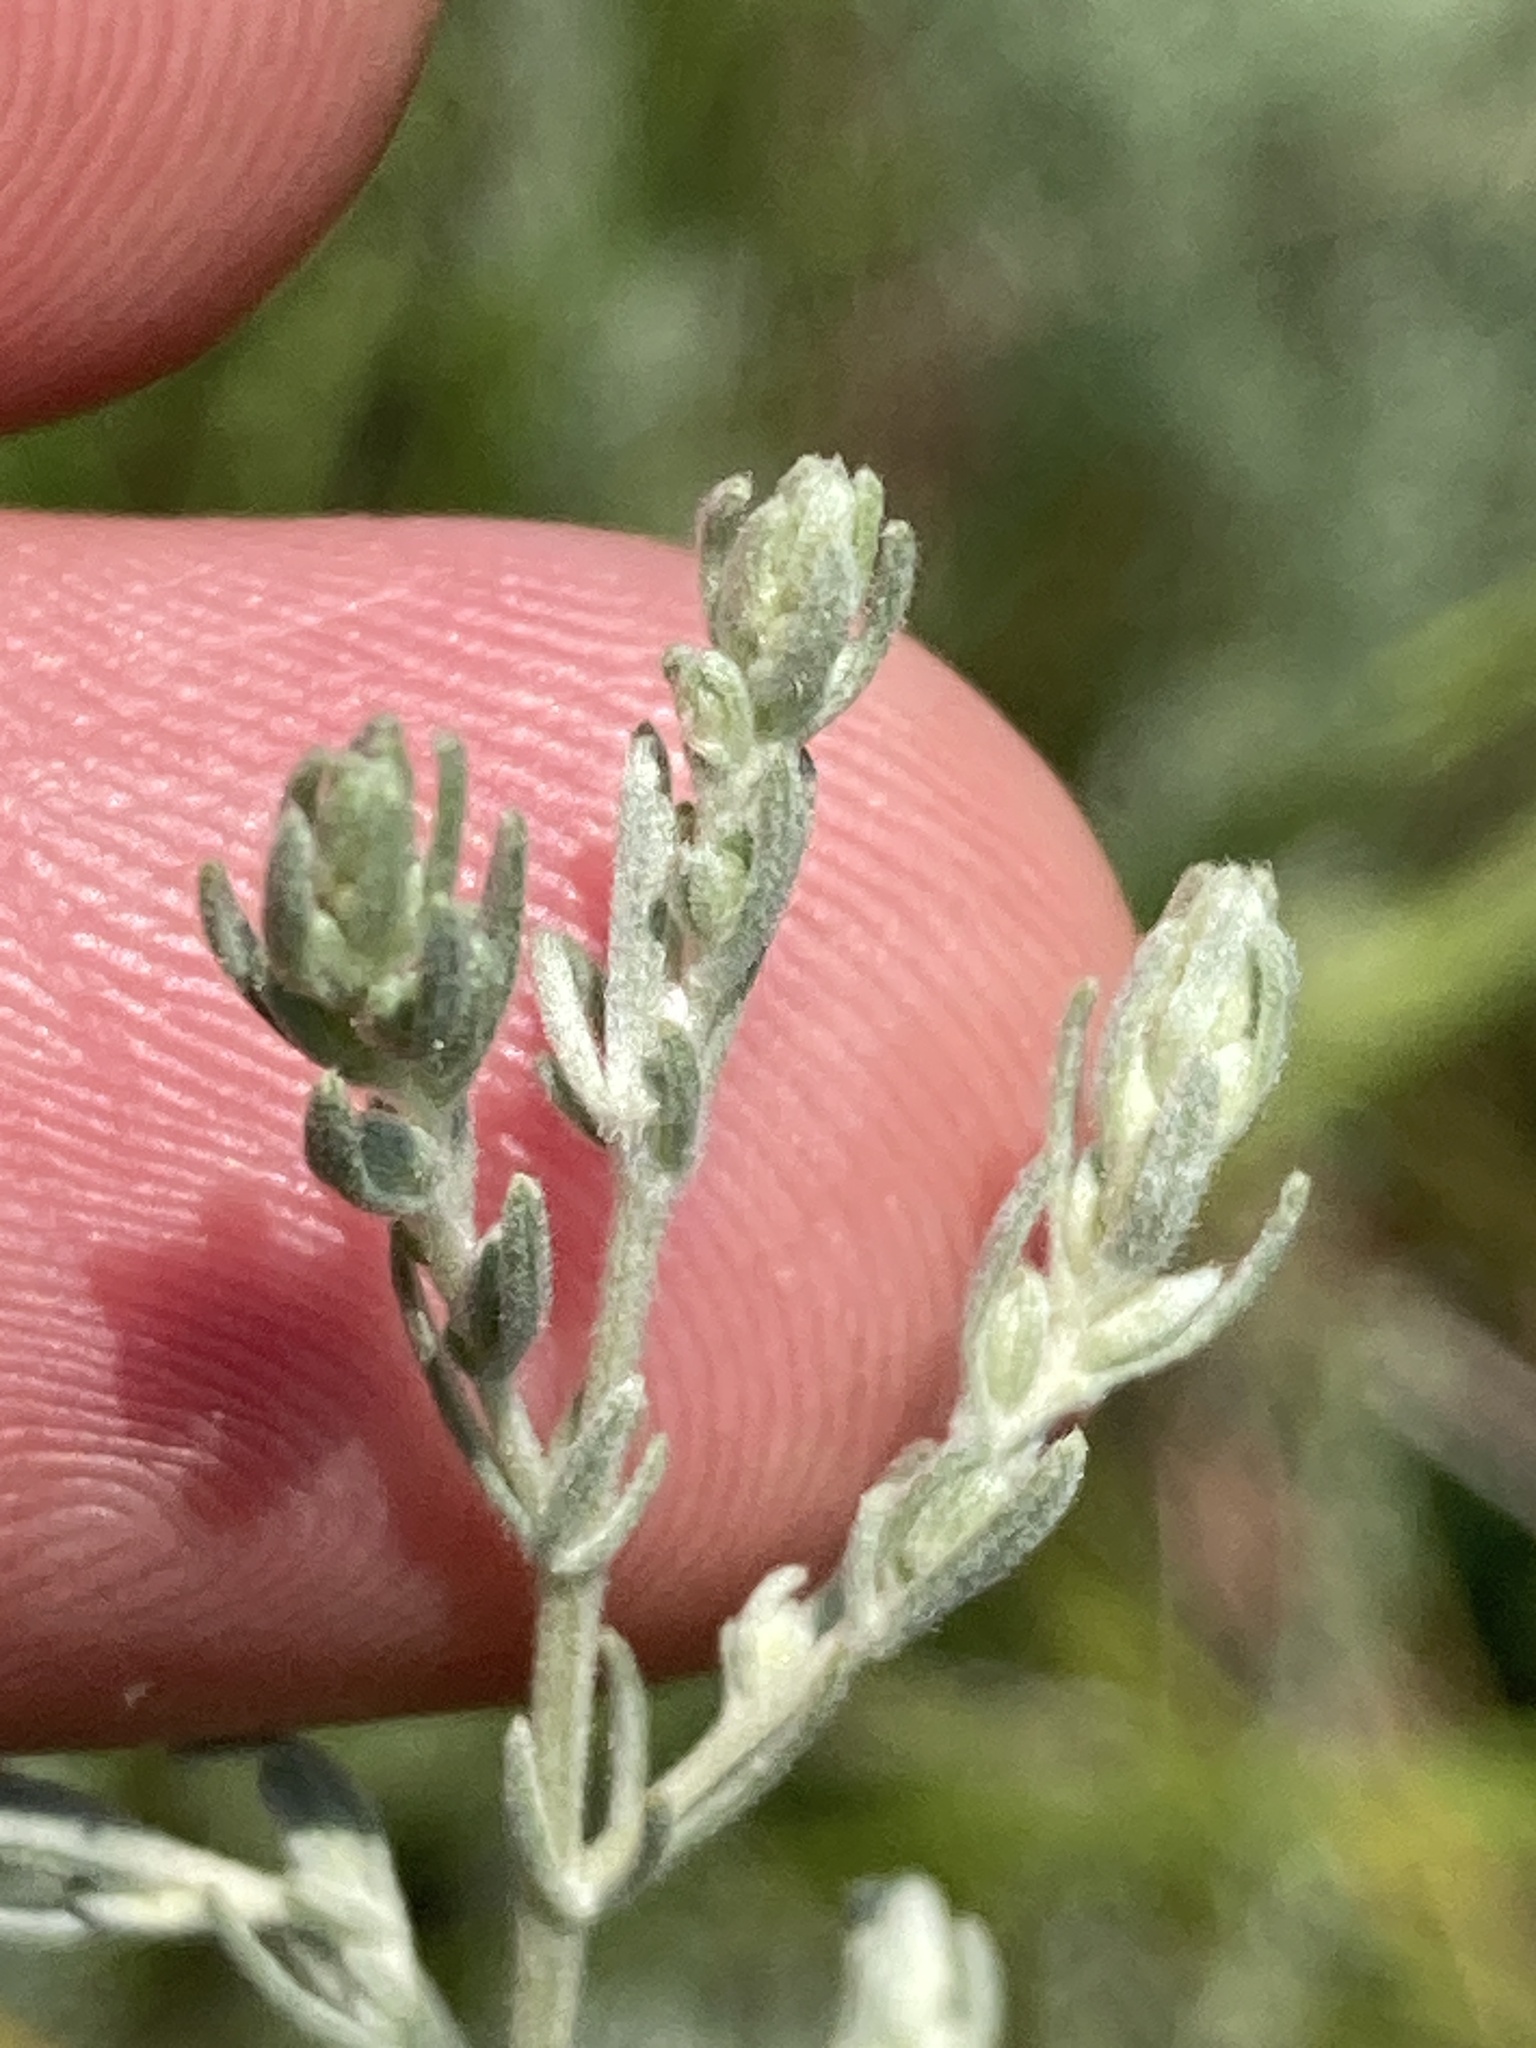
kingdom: Plantae
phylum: Tracheophyta
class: Magnoliopsida
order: Asterales
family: Asteraceae
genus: Artemisia
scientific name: Artemisia austriaca
